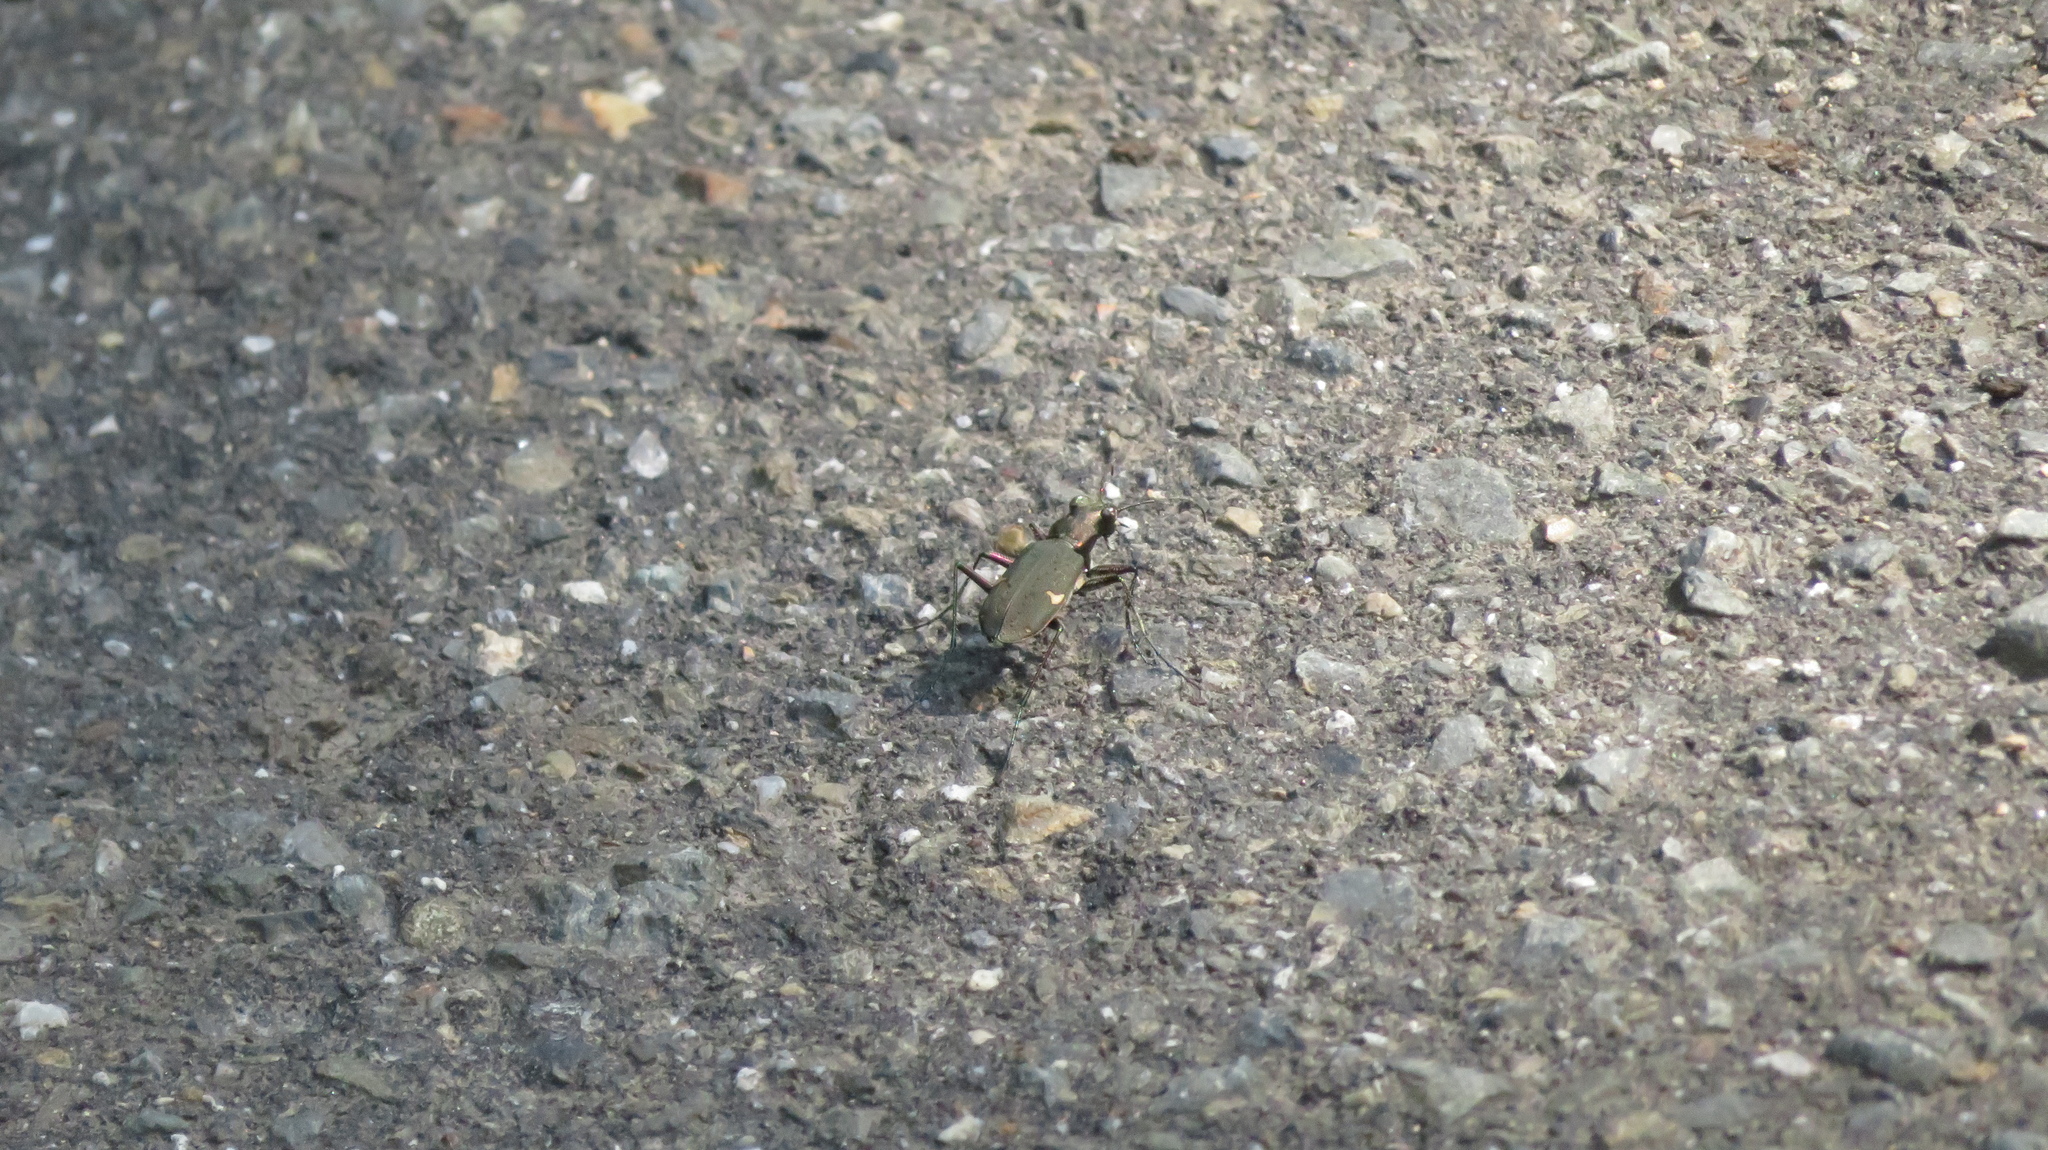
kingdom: Animalia
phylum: Arthropoda
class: Insecta
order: Coleoptera
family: Carabidae
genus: Cicindela
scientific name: Cicindela japana
